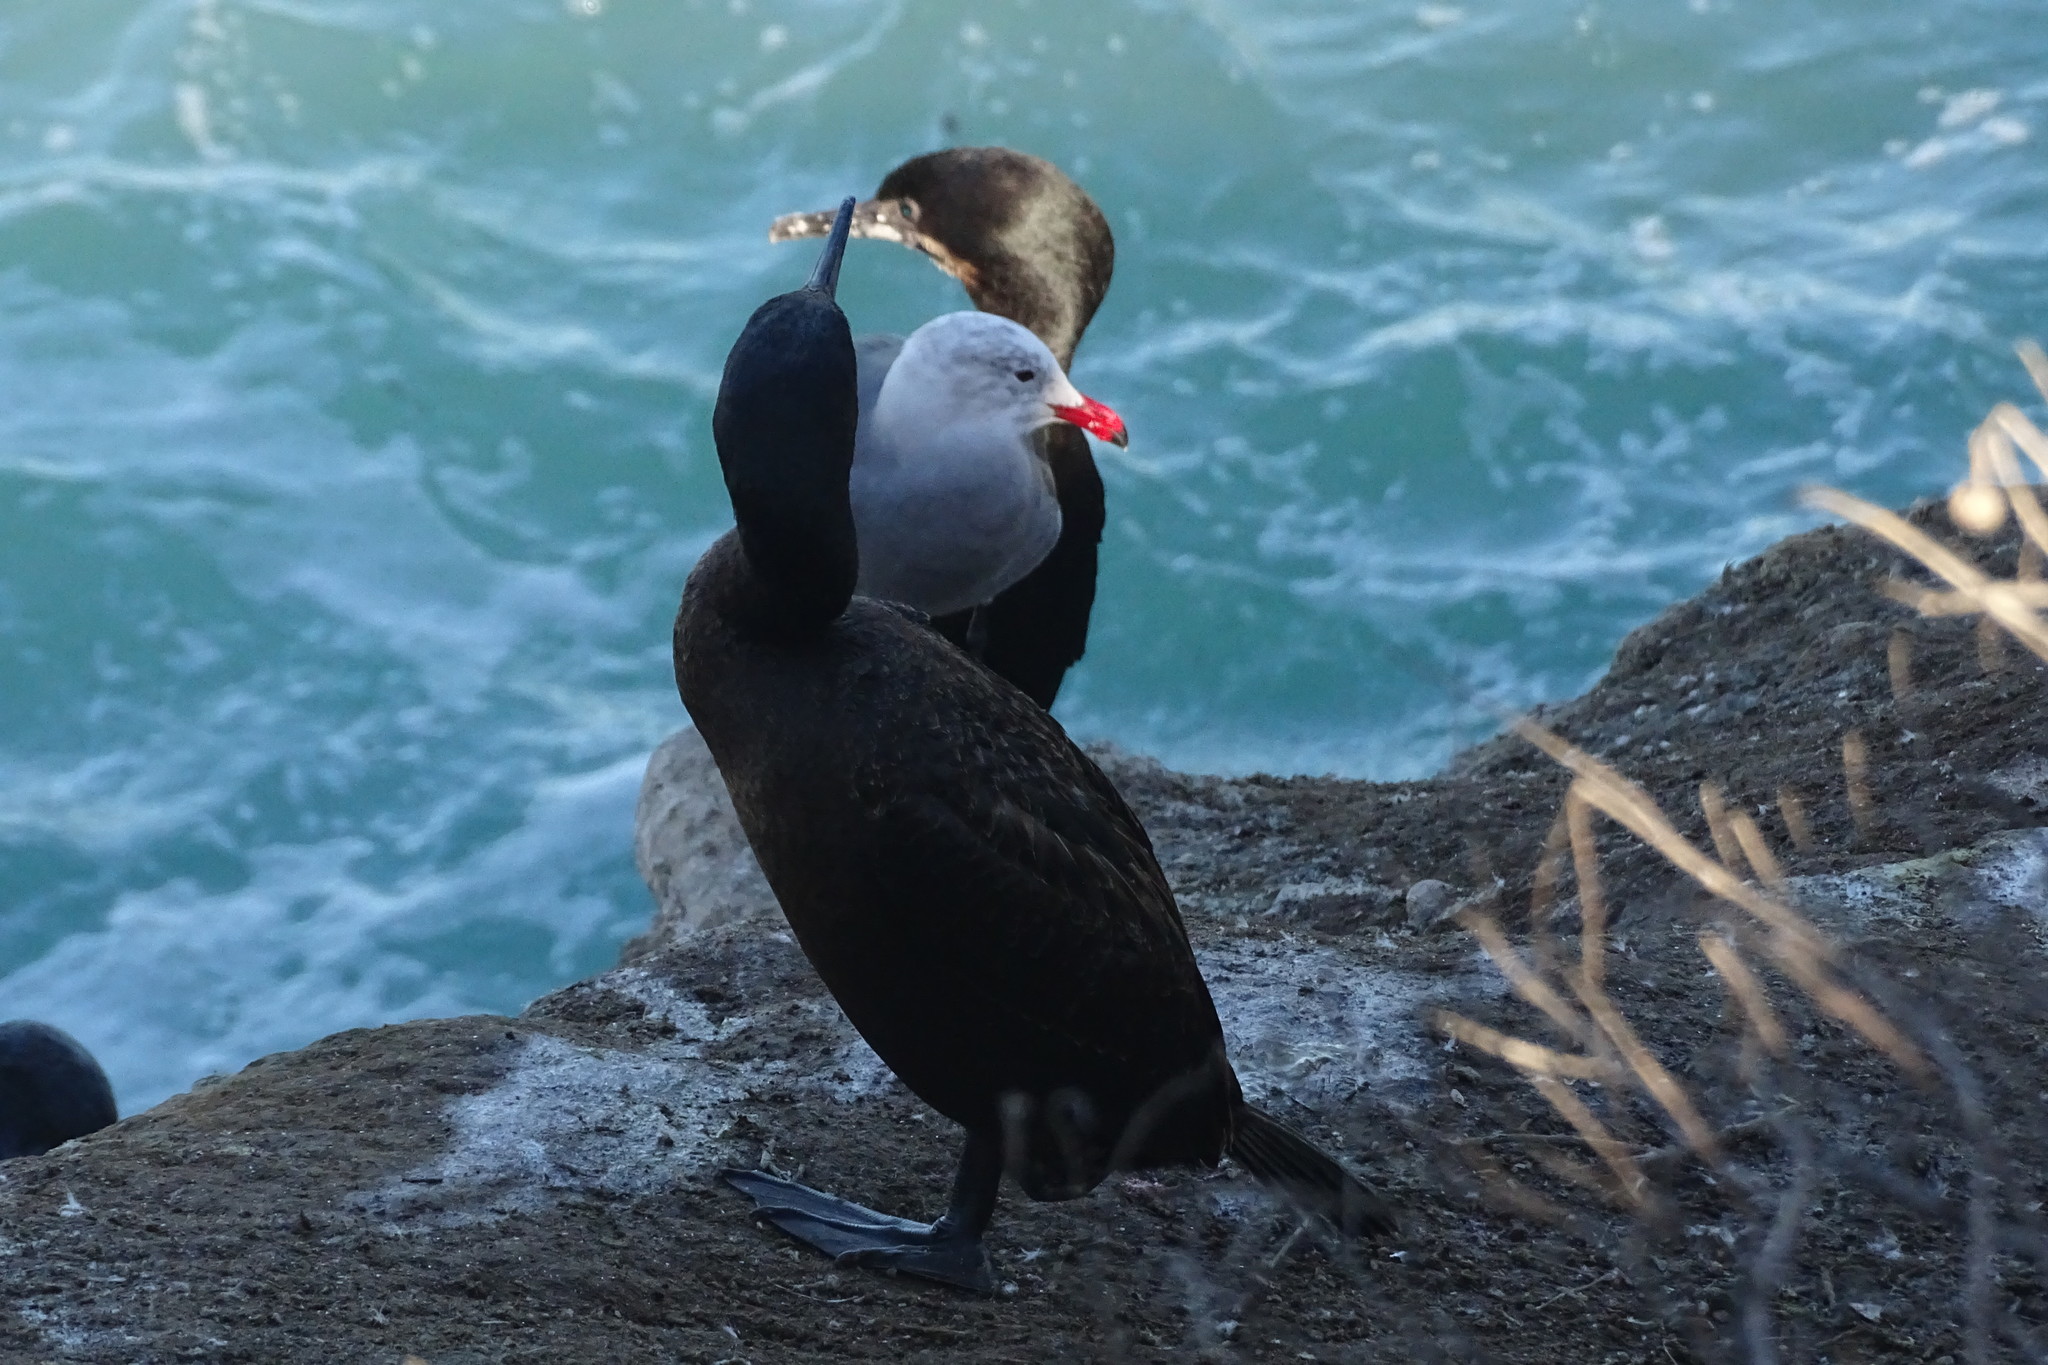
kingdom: Animalia
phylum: Chordata
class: Aves
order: Charadriiformes
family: Laridae
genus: Larus
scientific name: Larus heermanni
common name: Heermann's gull
